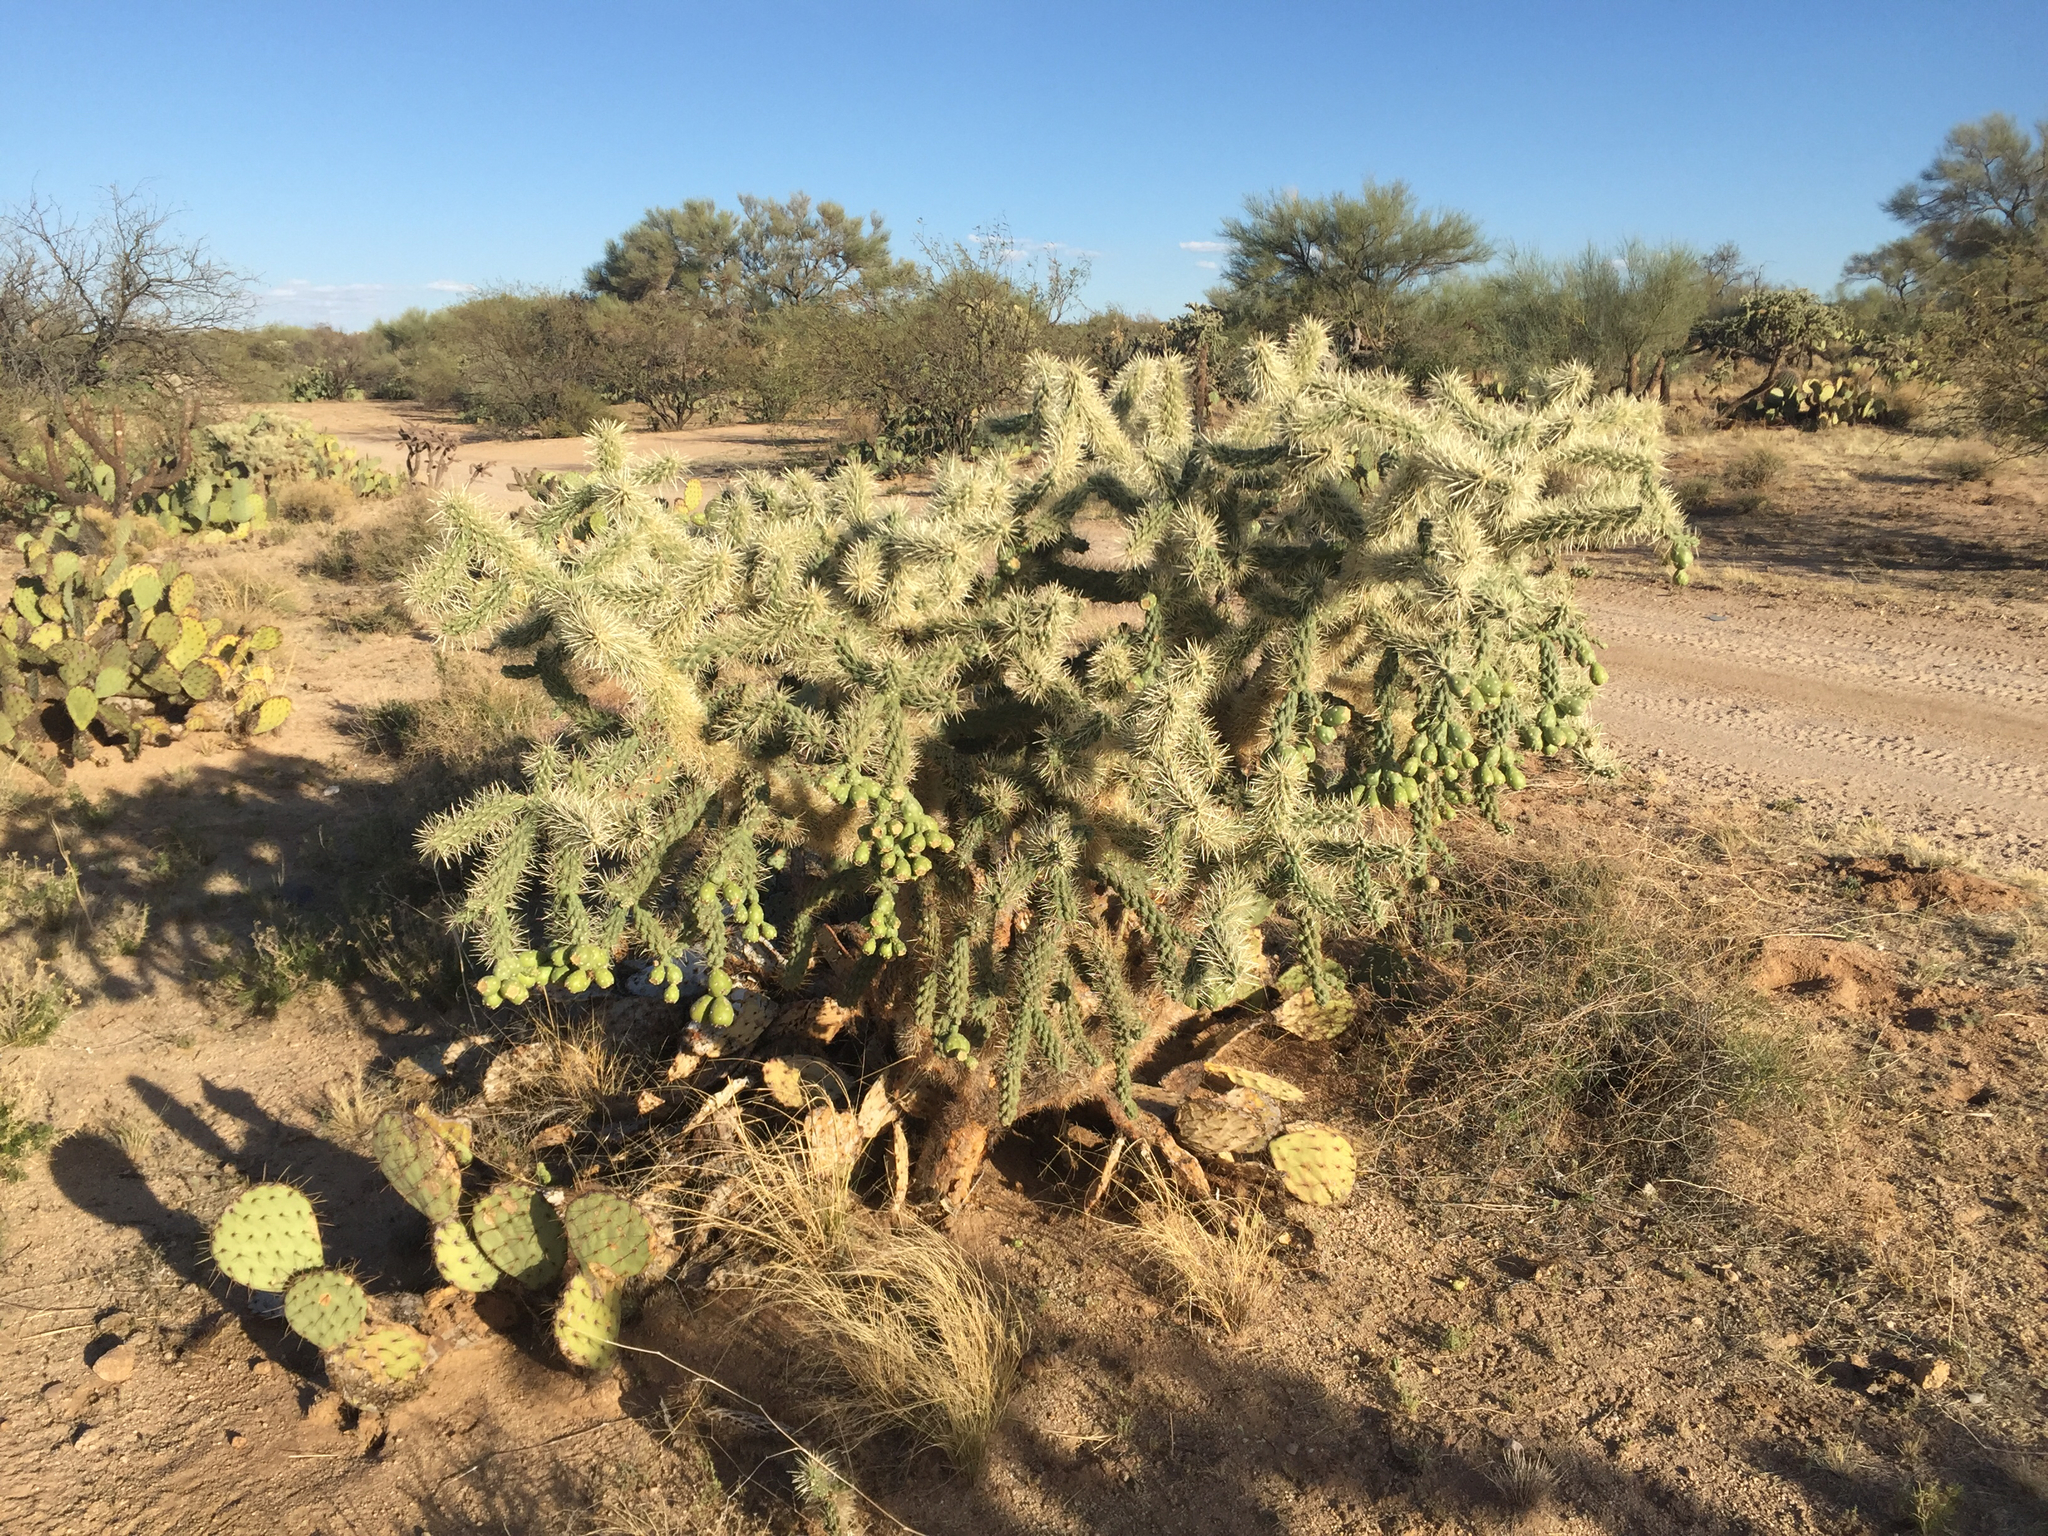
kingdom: Plantae
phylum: Tracheophyta
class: Magnoliopsida
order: Caryophyllales
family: Cactaceae
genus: Cylindropuntia
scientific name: Cylindropuntia fulgida
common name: Jumping cholla
